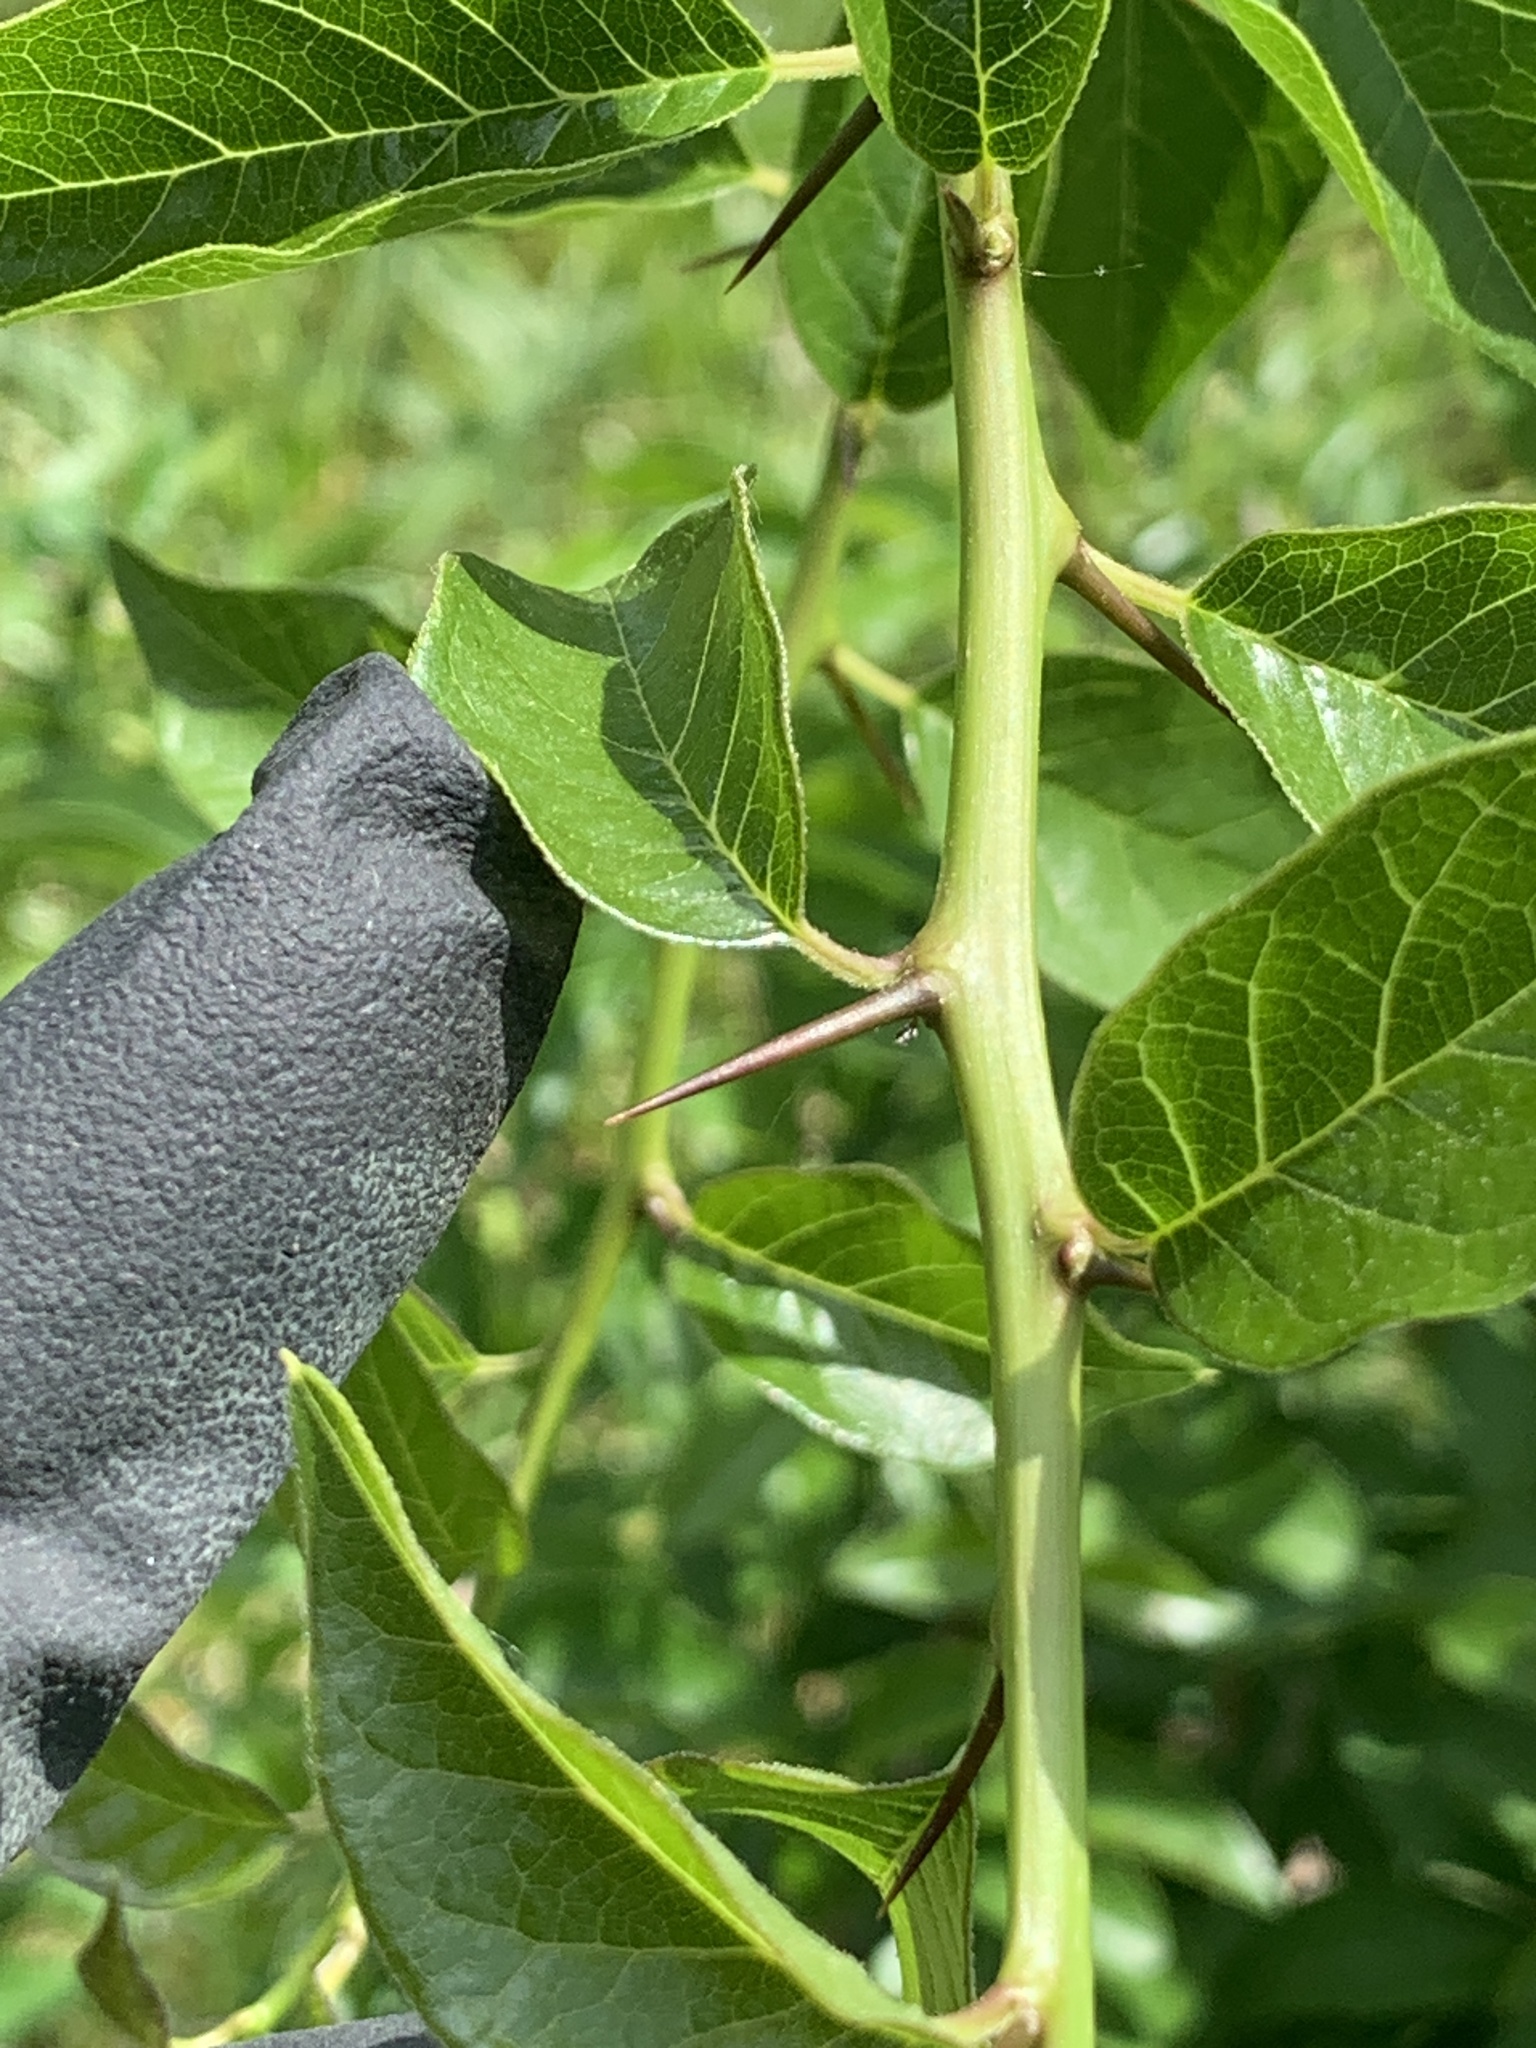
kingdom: Plantae
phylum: Tracheophyta
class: Magnoliopsida
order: Rosales
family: Moraceae
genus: Maclura
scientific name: Maclura pomifera
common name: Osage-orange
